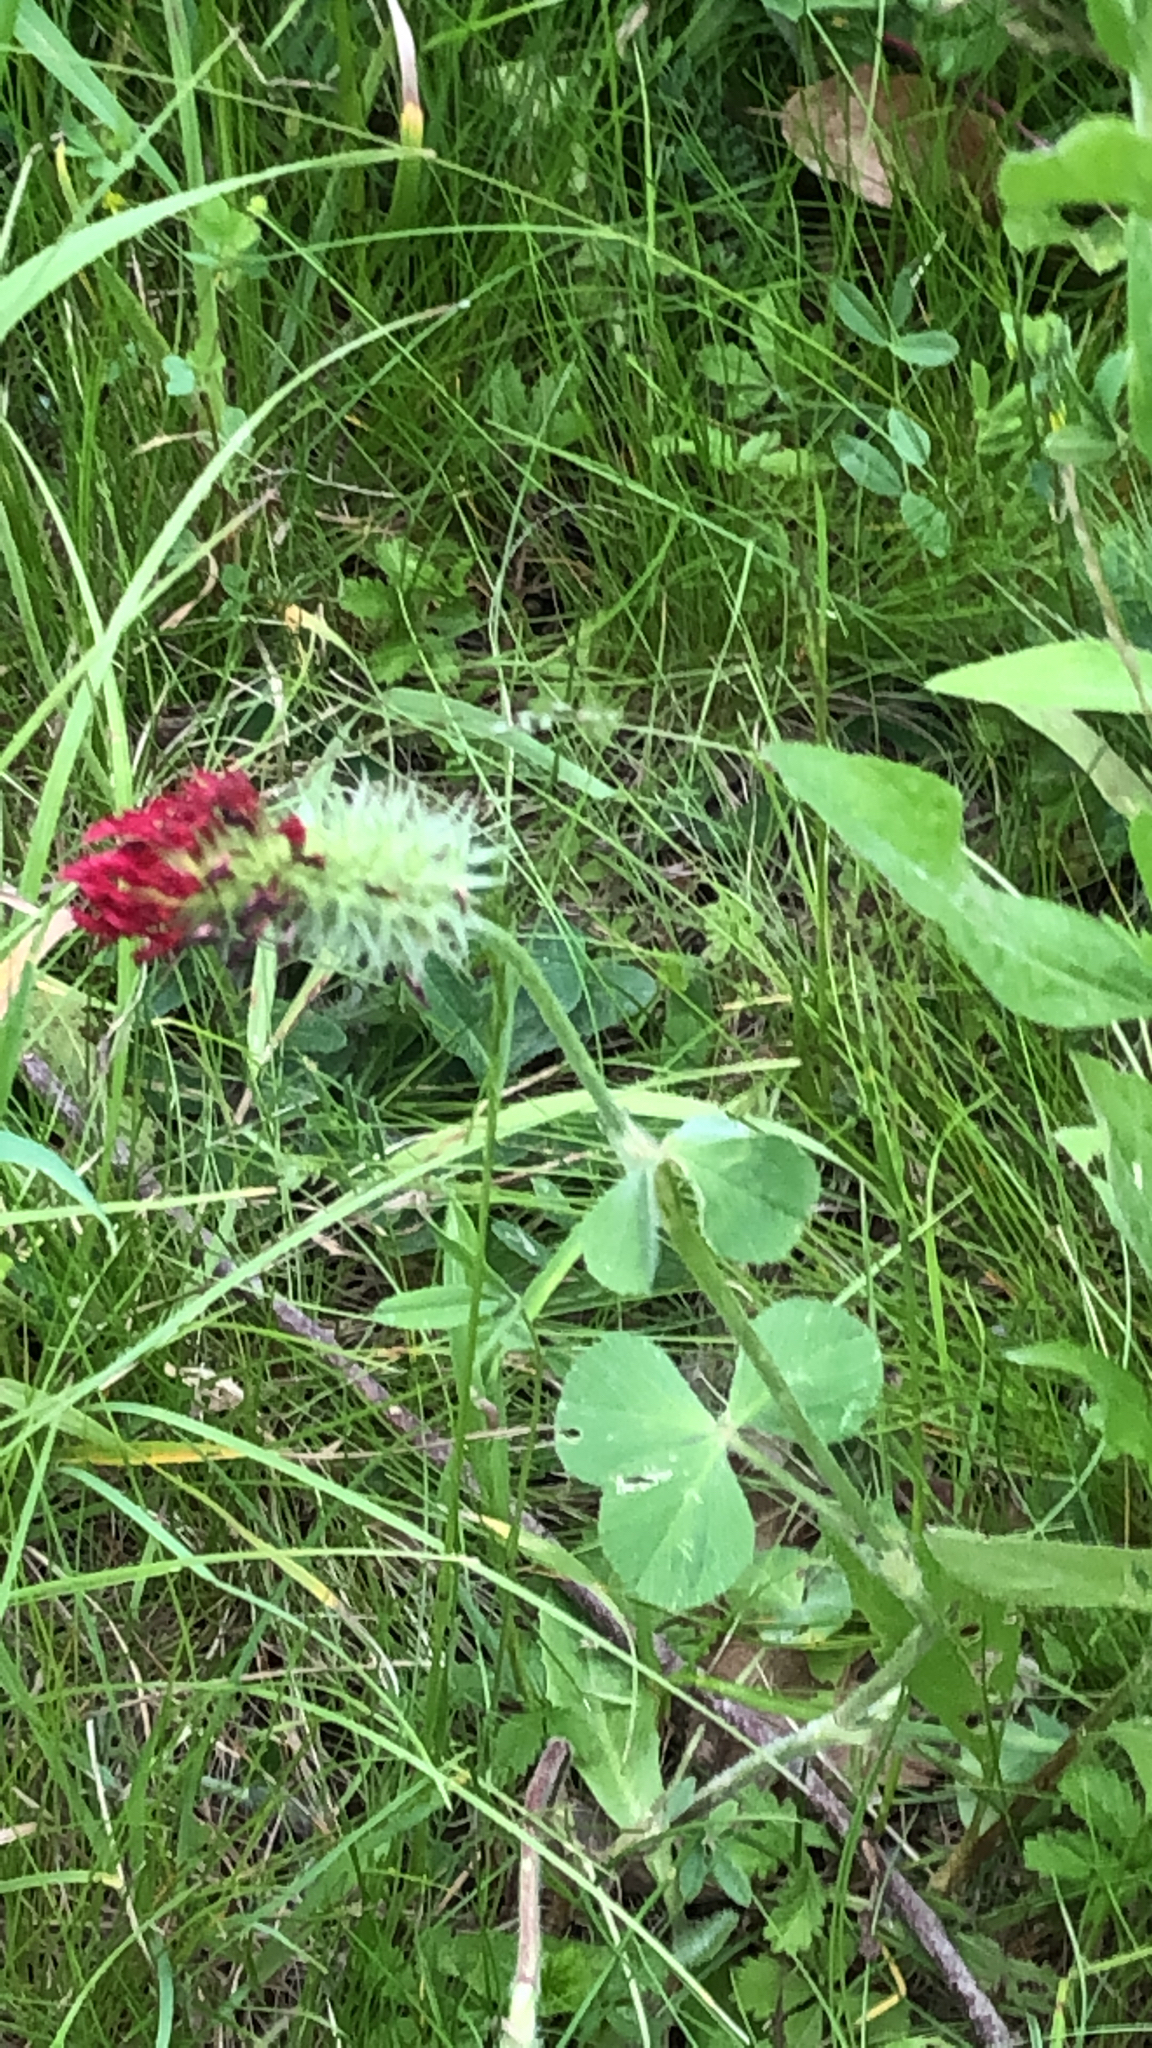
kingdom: Plantae
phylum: Tracheophyta
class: Magnoliopsida
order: Fabales
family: Fabaceae
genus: Trifolium
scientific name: Trifolium incarnatum
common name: Crimson clover
